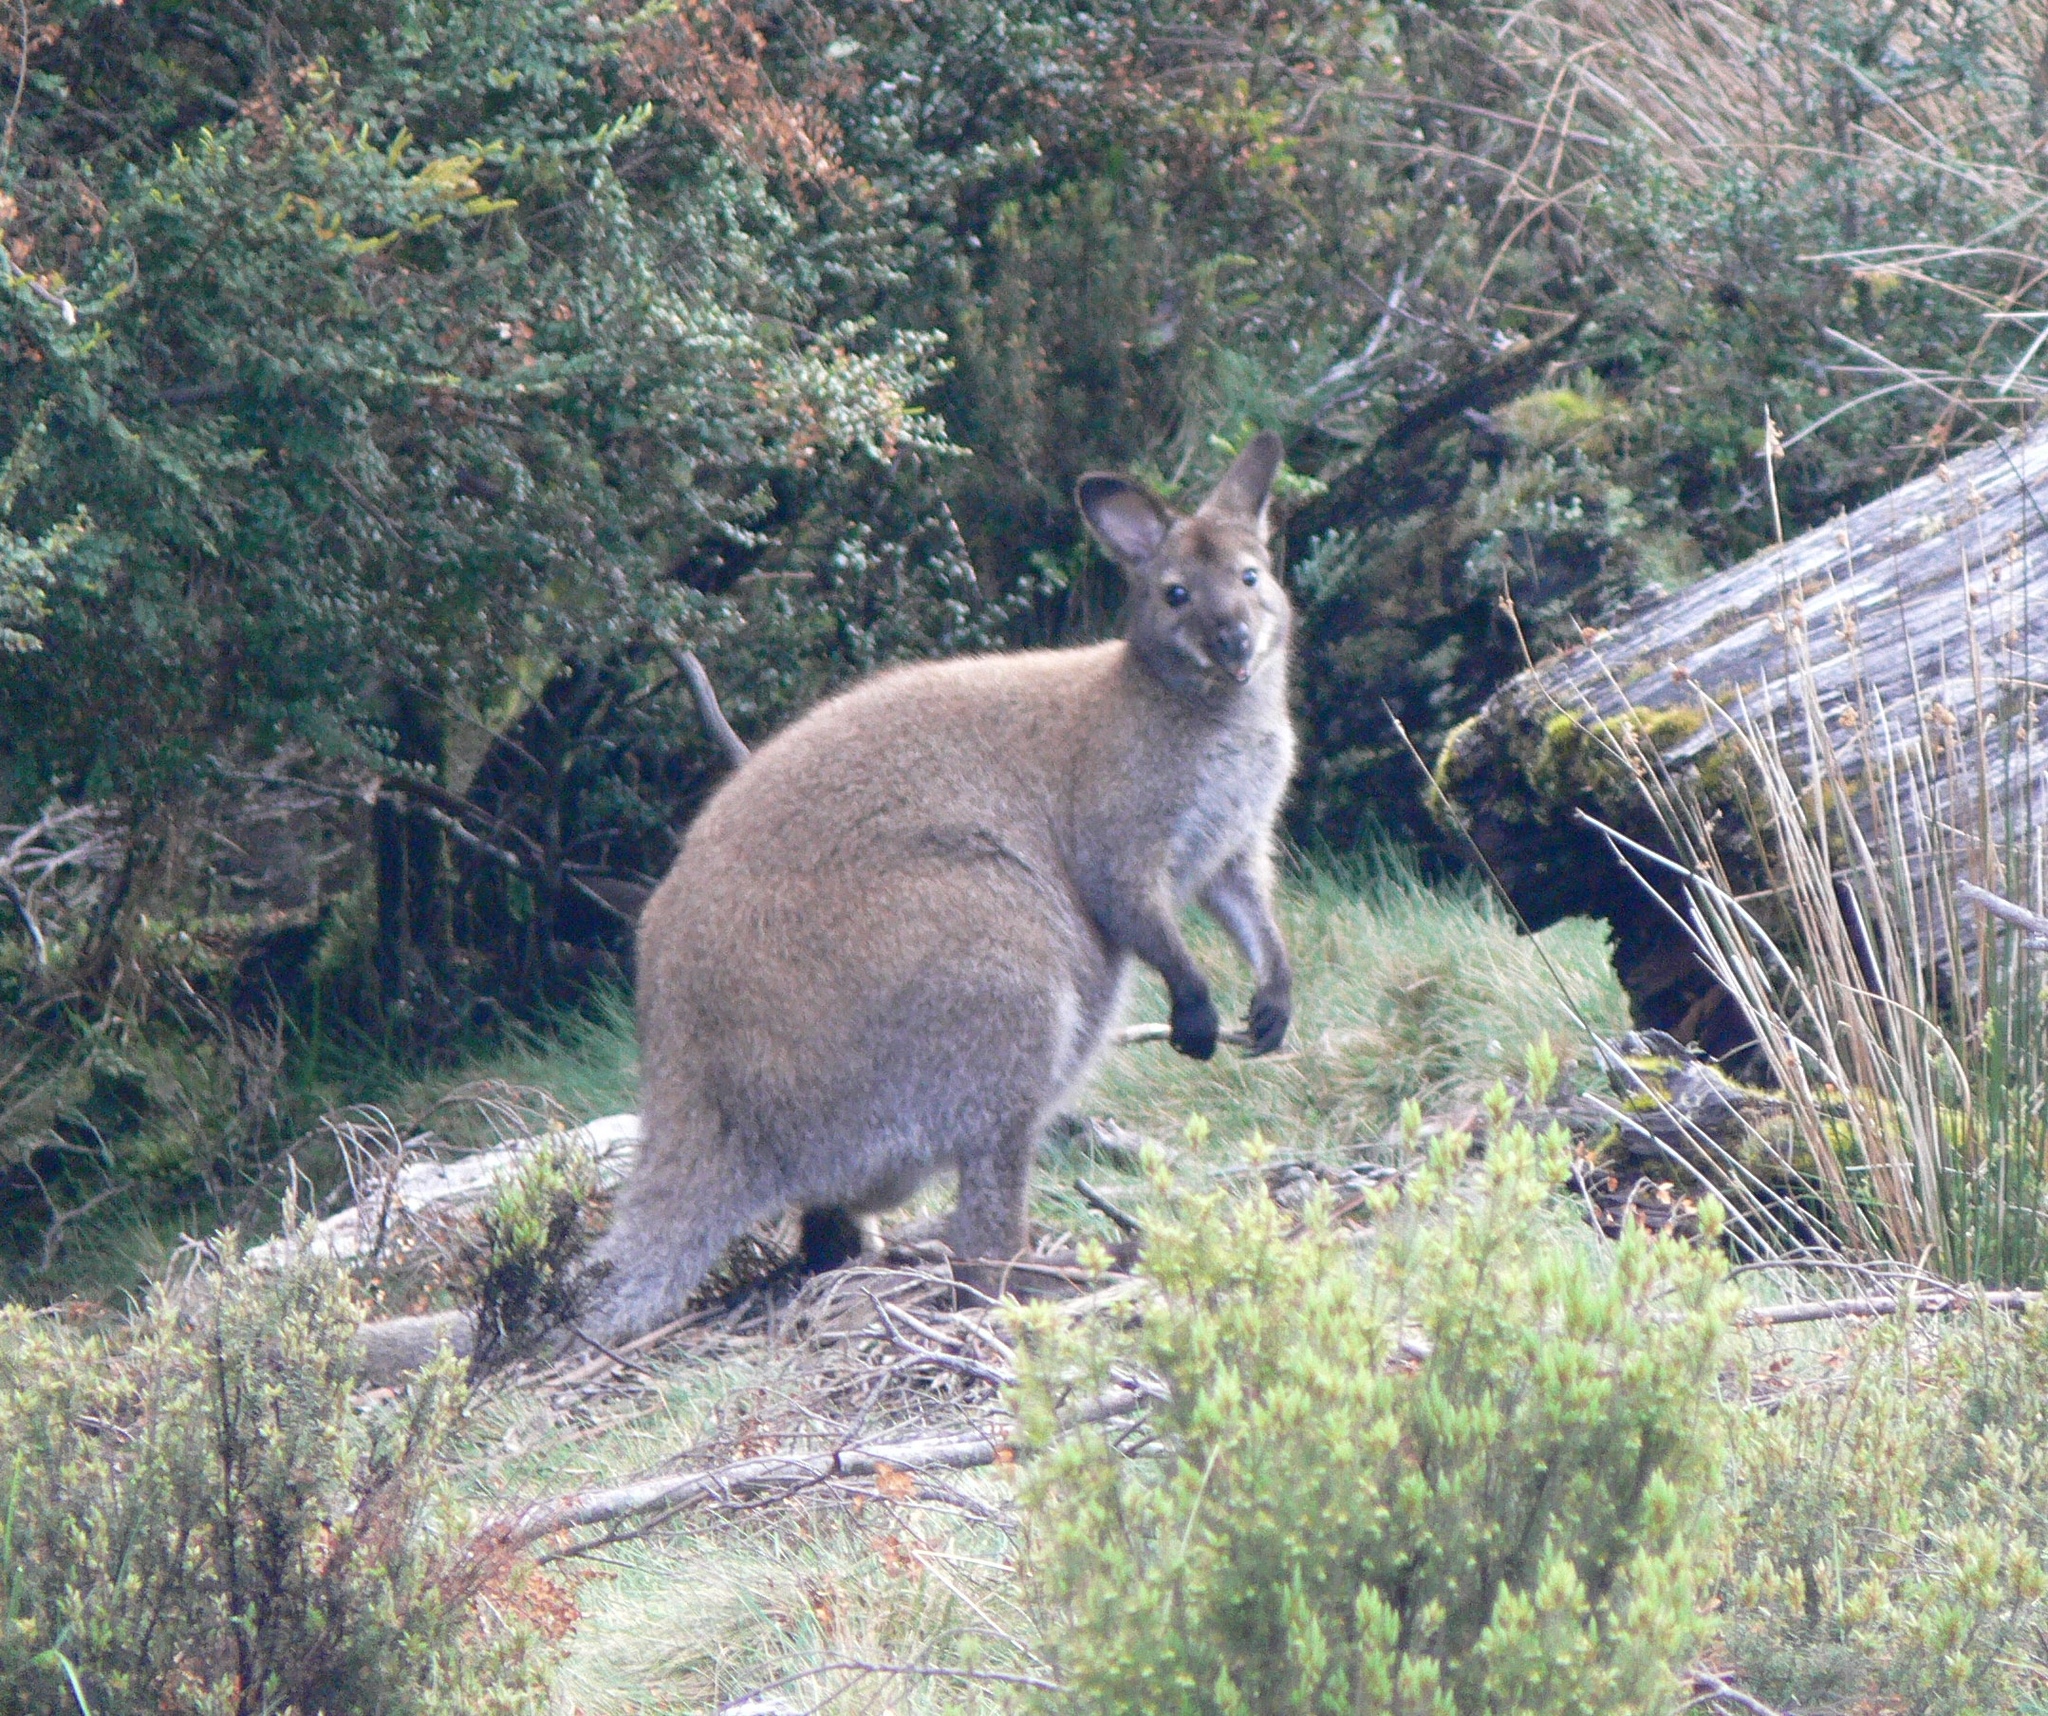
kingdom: Animalia
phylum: Chordata
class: Mammalia
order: Diprotodontia
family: Macropodidae
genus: Notamacropus
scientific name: Notamacropus rufogriseus
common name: Red-necked wallaby
